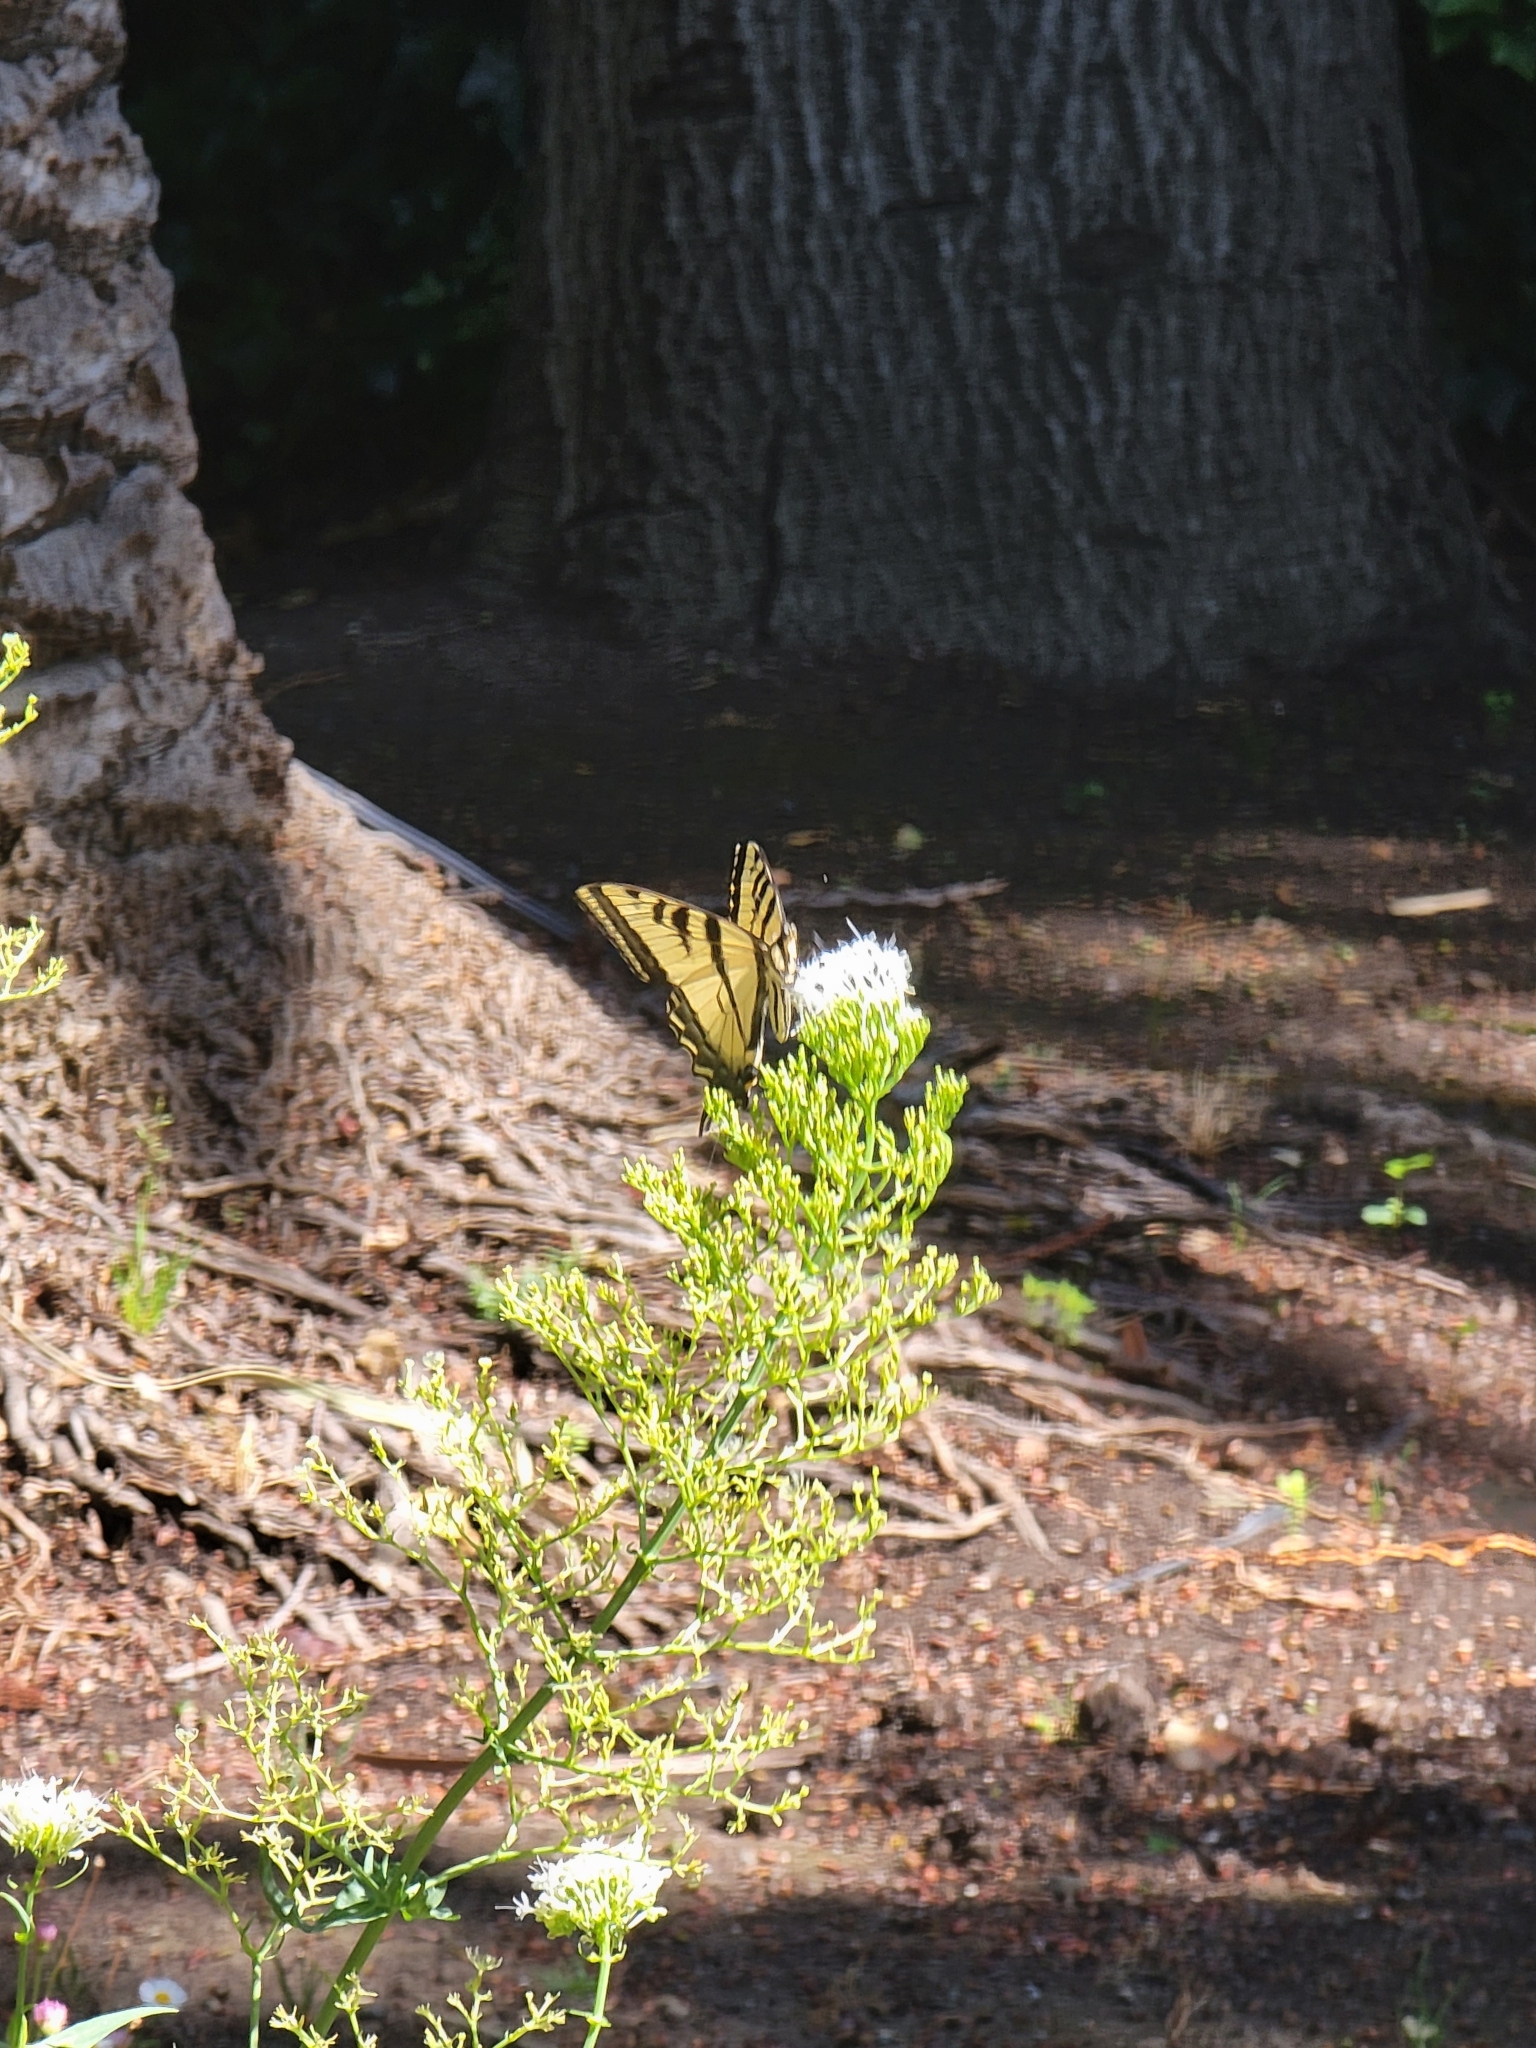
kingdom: Animalia
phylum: Arthropoda
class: Insecta
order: Lepidoptera
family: Papilionidae
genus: Papilio
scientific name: Papilio rutulus
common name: Western tiger swallowtail
